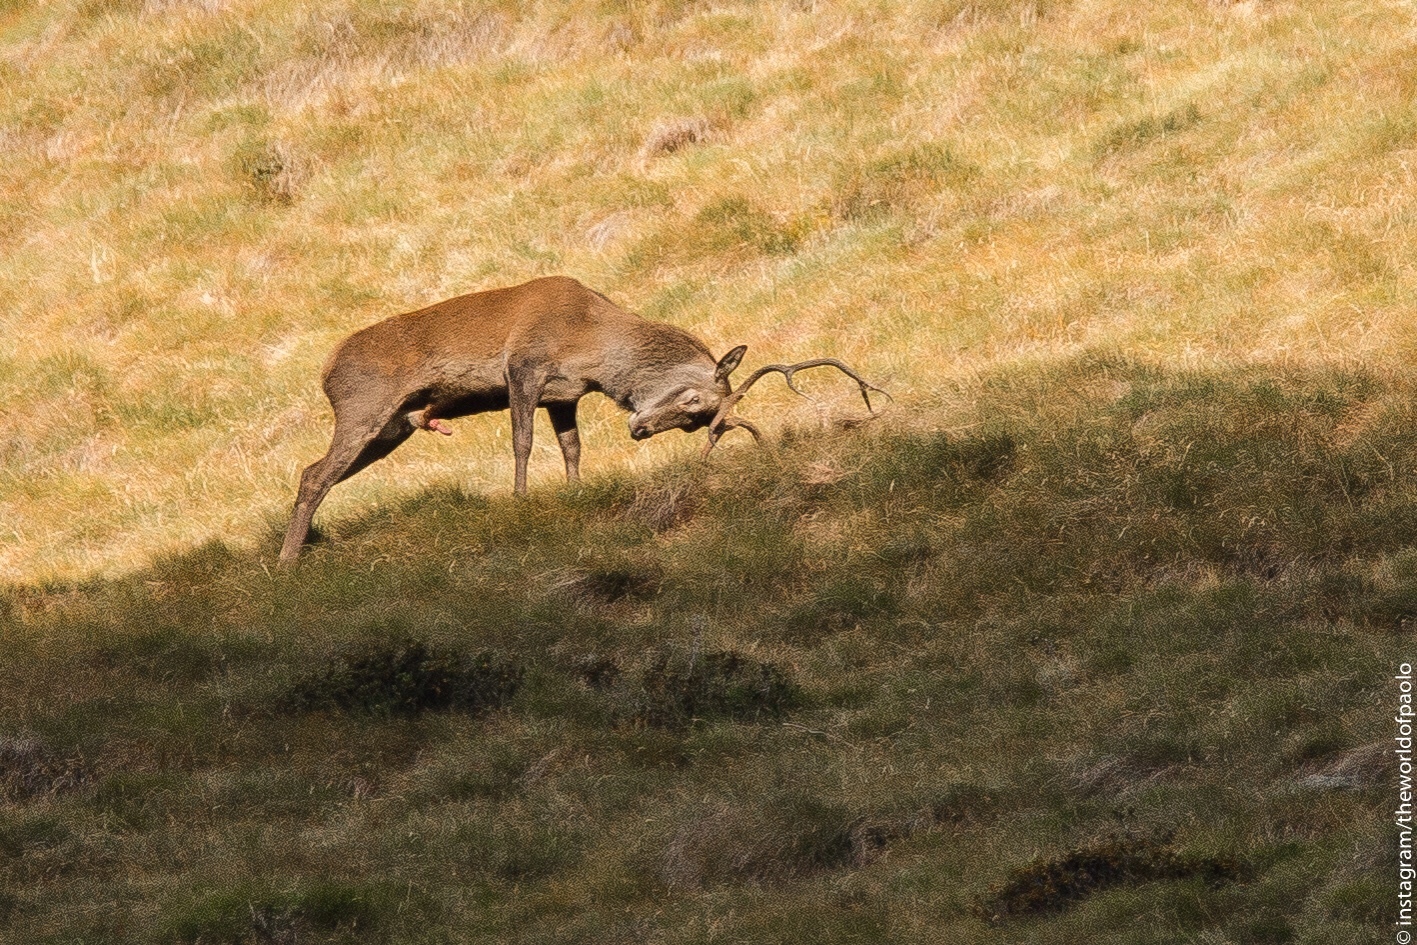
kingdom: Animalia
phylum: Chordata
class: Mammalia
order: Artiodactyla
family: Cervidae
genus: Cervus
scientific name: Cervus elaphus
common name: Red deer
